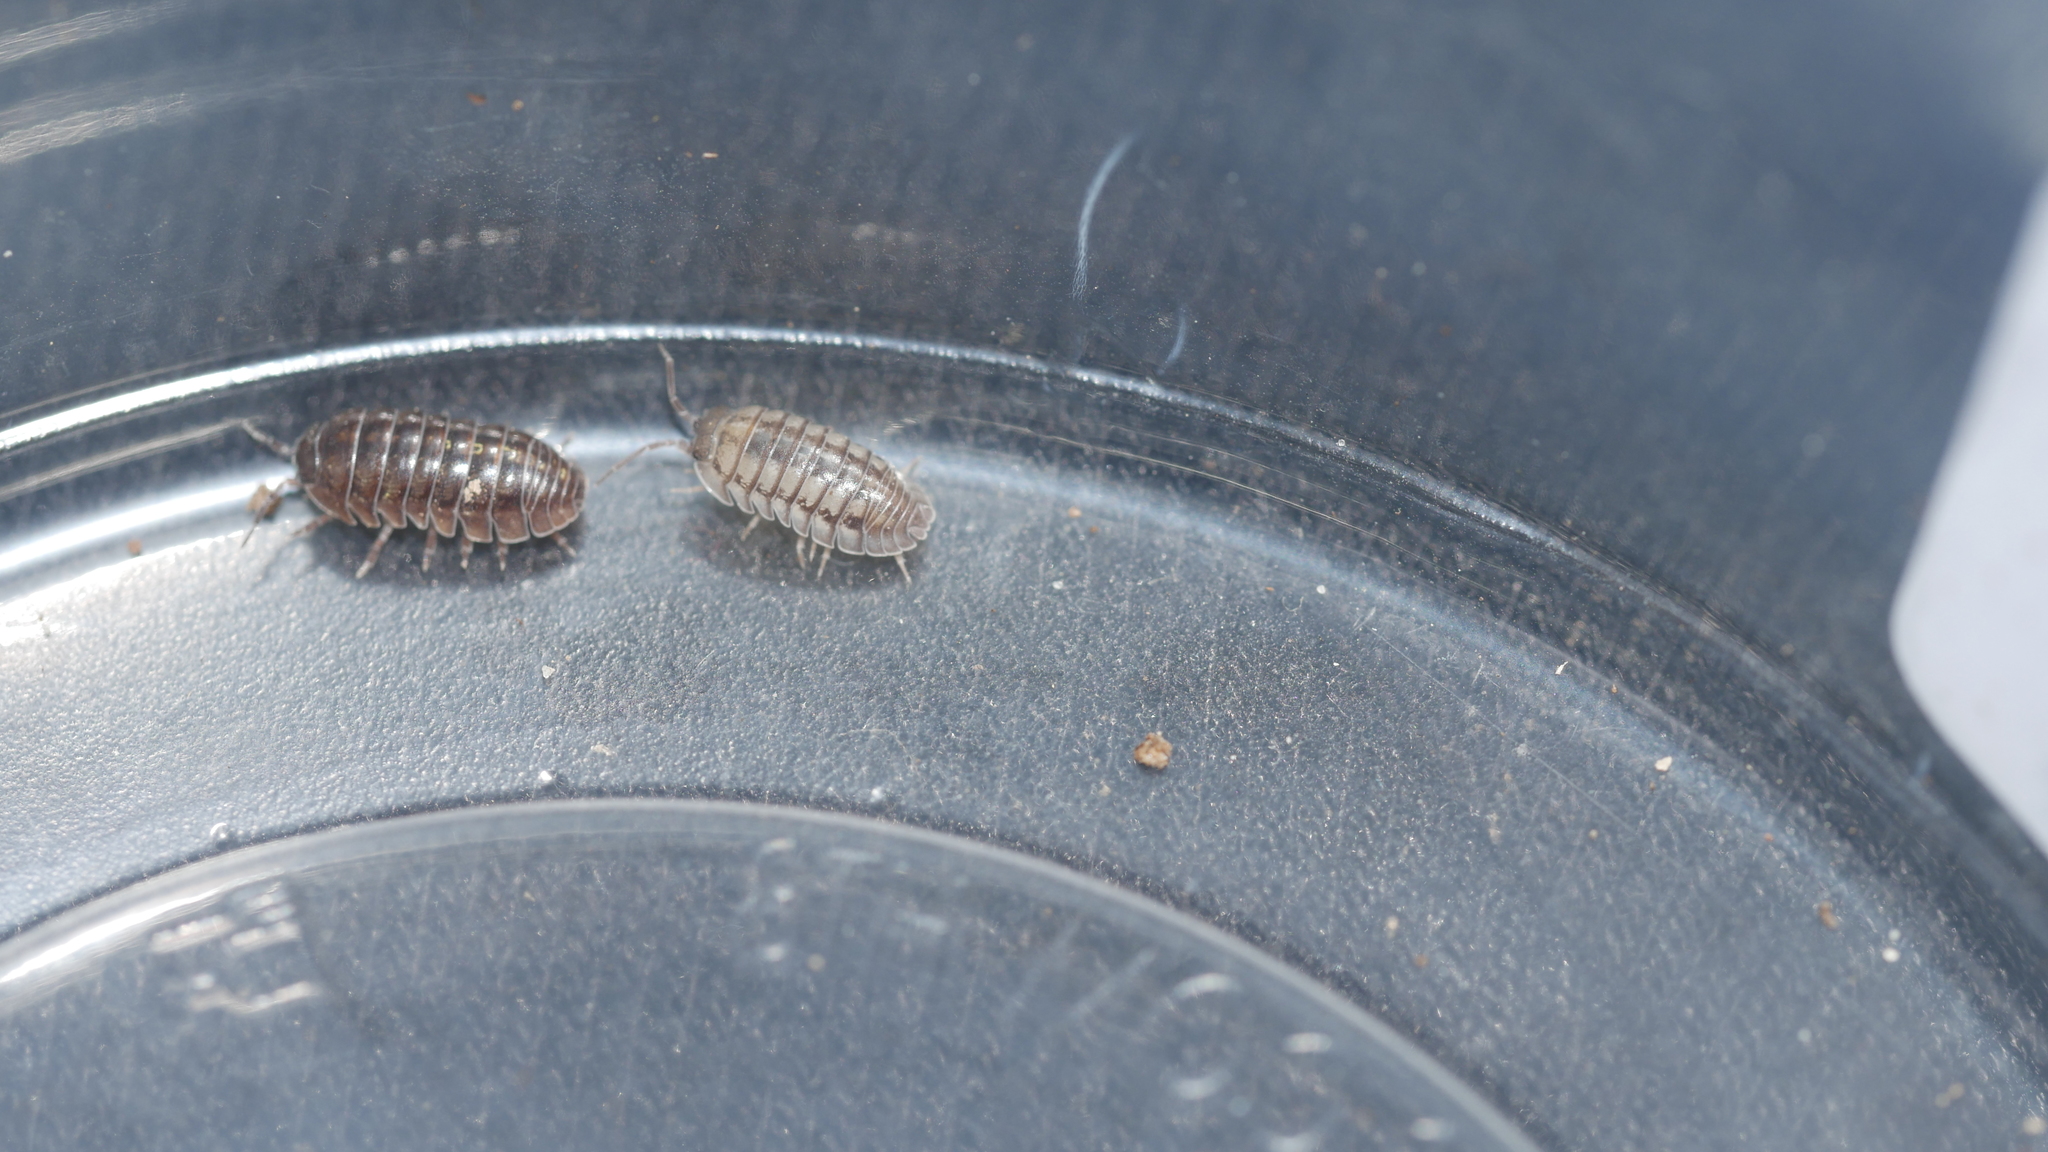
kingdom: Animalia
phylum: Arthropoda
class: Malacostraca
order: Isopoda
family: Armadillidiidae
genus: Armadillidium
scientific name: Armadillidium nasatum
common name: Isopod
